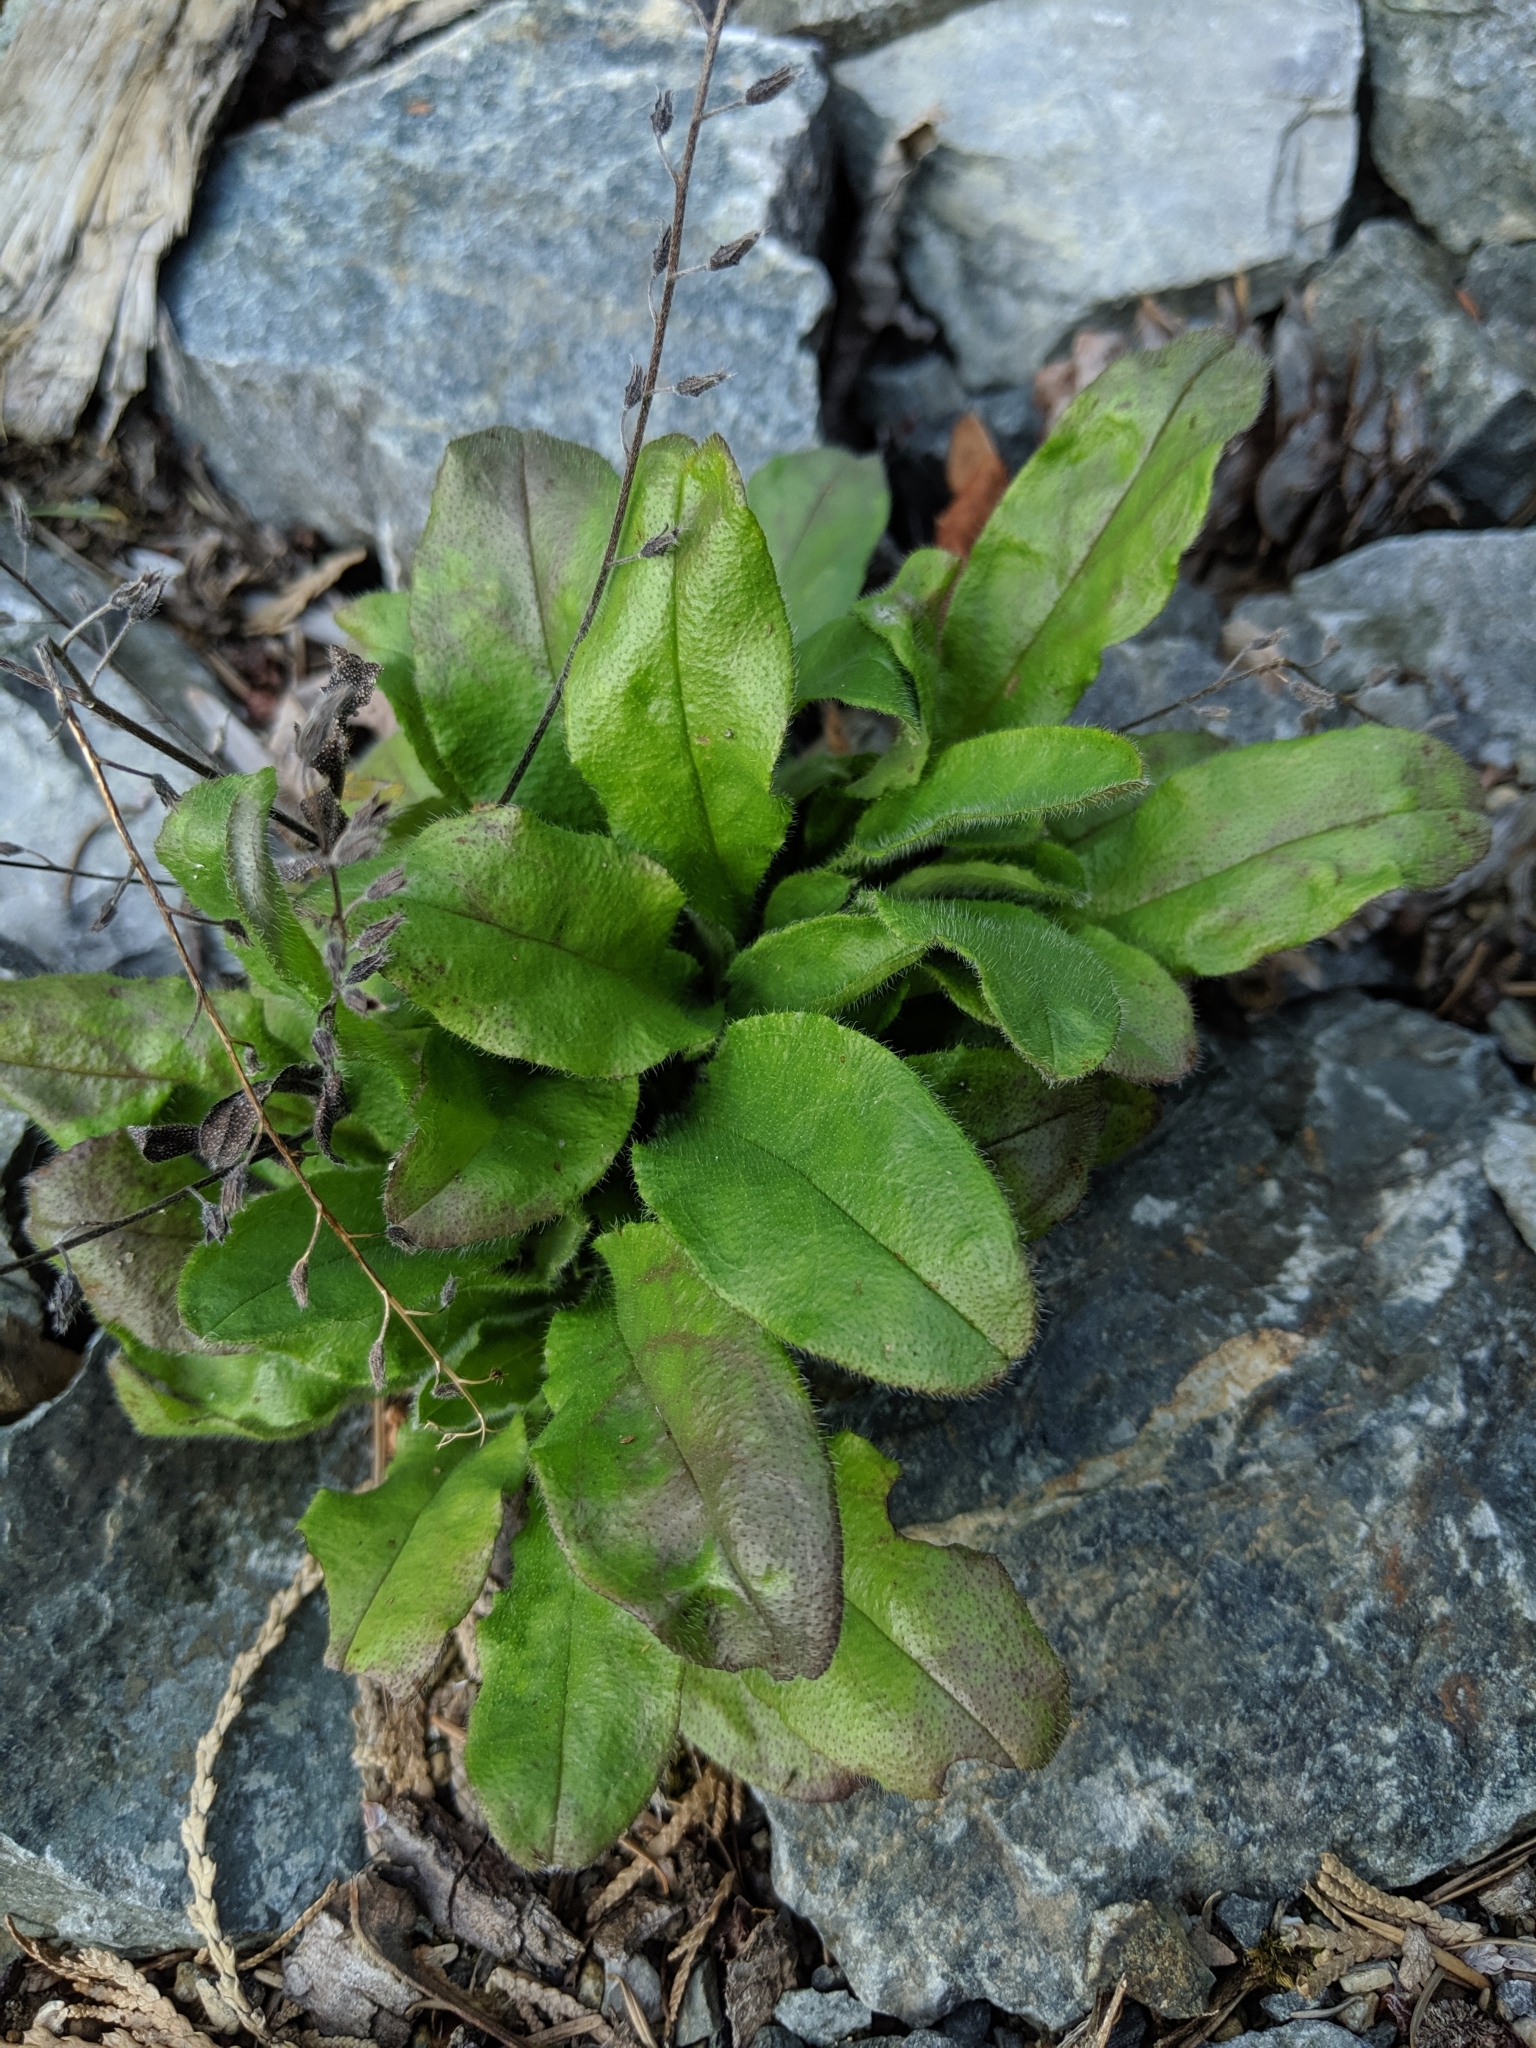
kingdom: Plantae
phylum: Tracheophyta
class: Magnoliopsida
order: Boraginales
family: Boraginaceae
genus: Myosotis
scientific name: Myosotis sylvatica
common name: Wood forget-me-not
